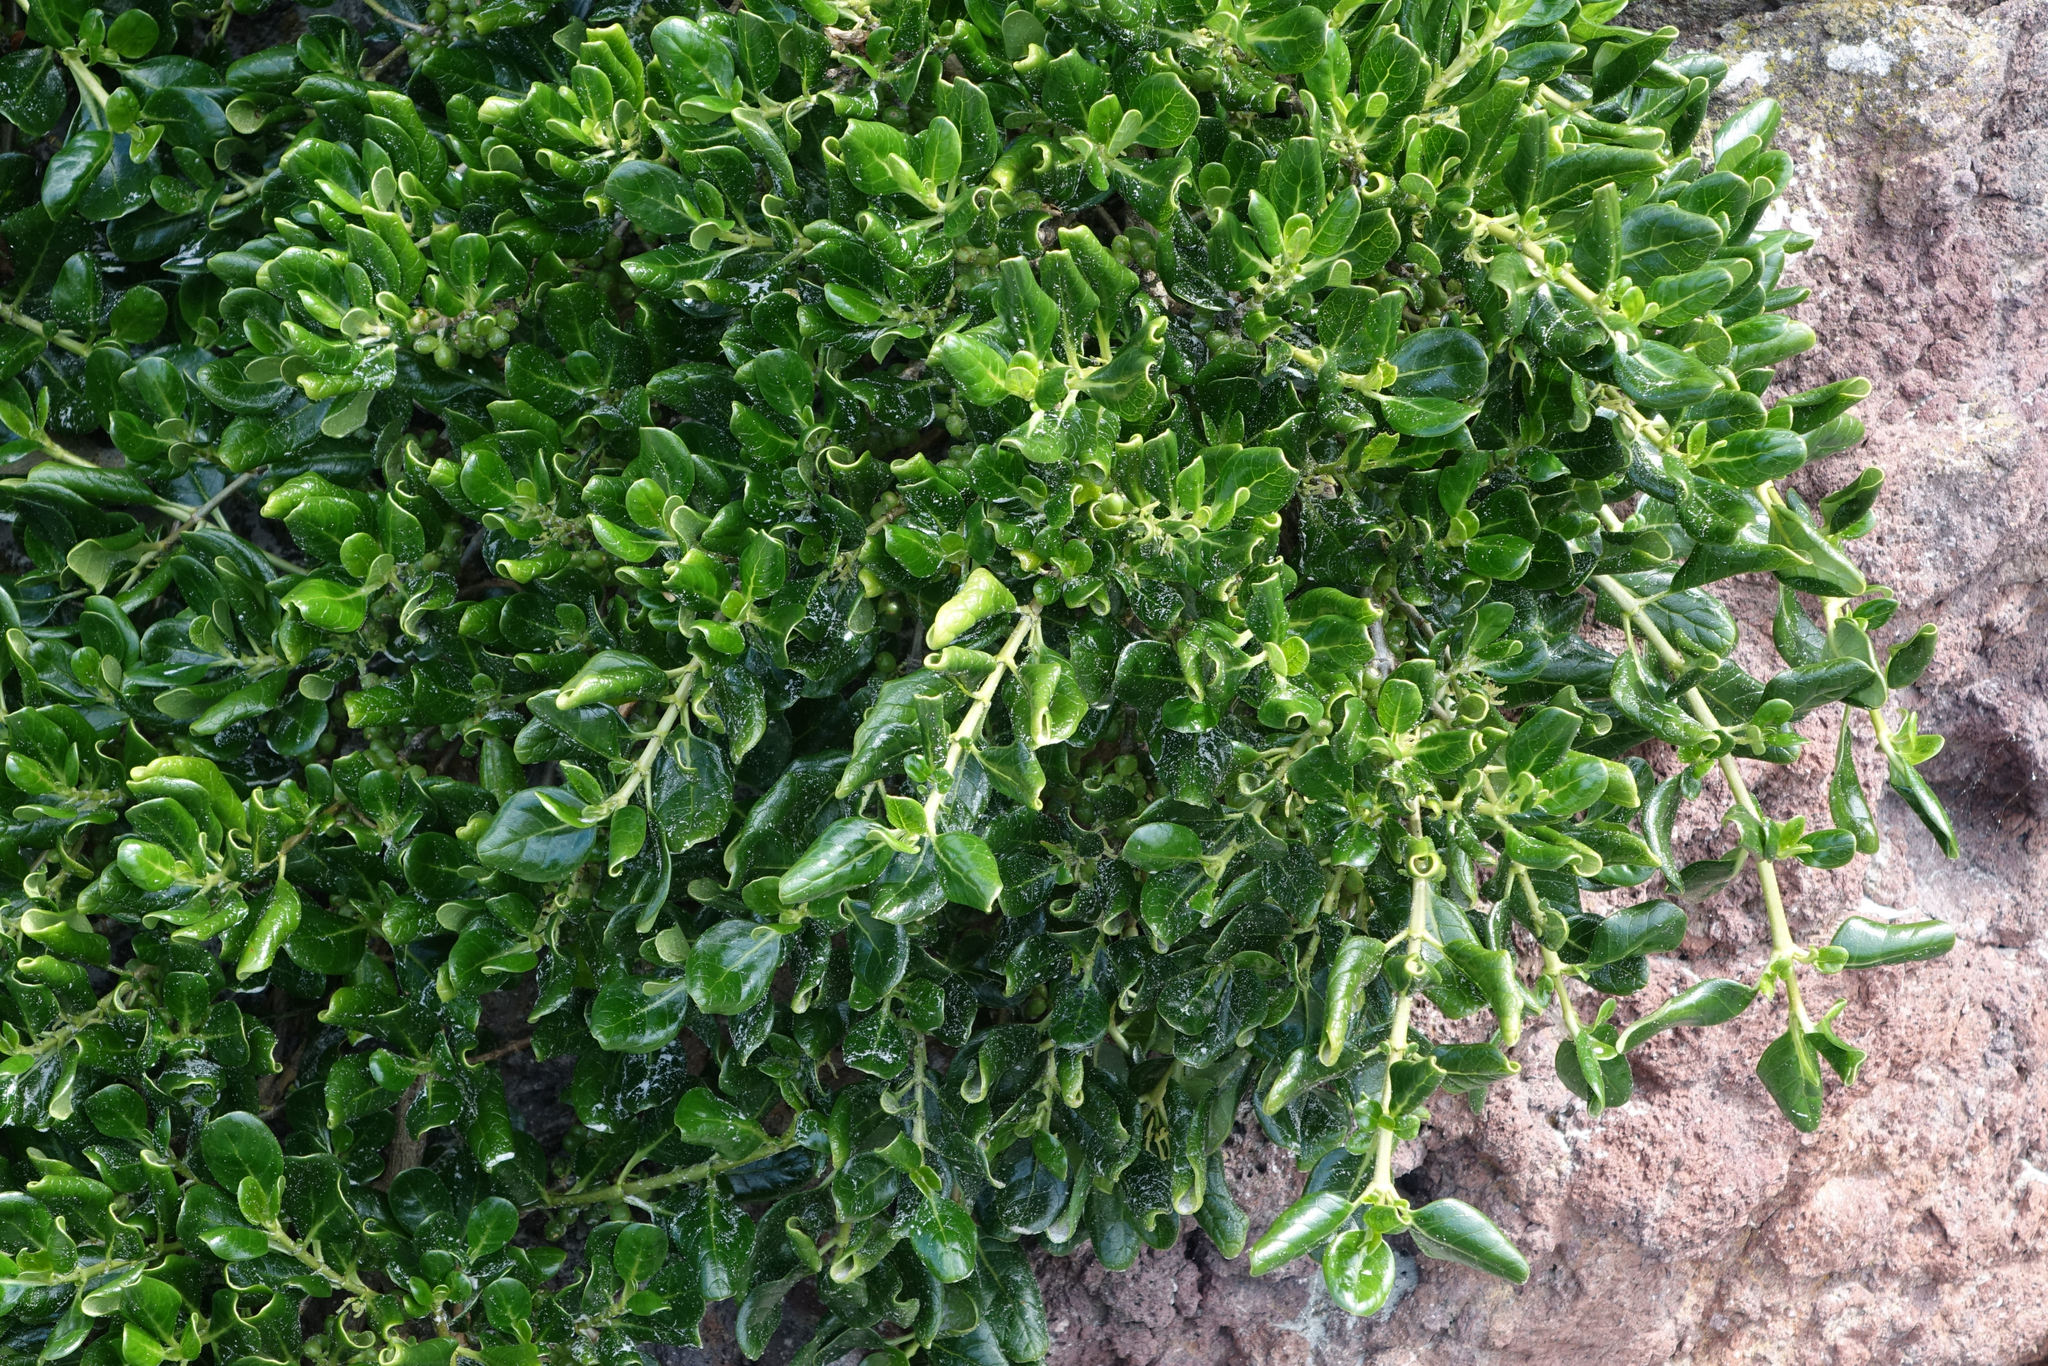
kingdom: Plantae
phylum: Tracheophyta
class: Magnoliopsida
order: Gentianales
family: Rubiaceae
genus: Coprosma
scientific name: Coprosma repens
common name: Tree bedstraw
